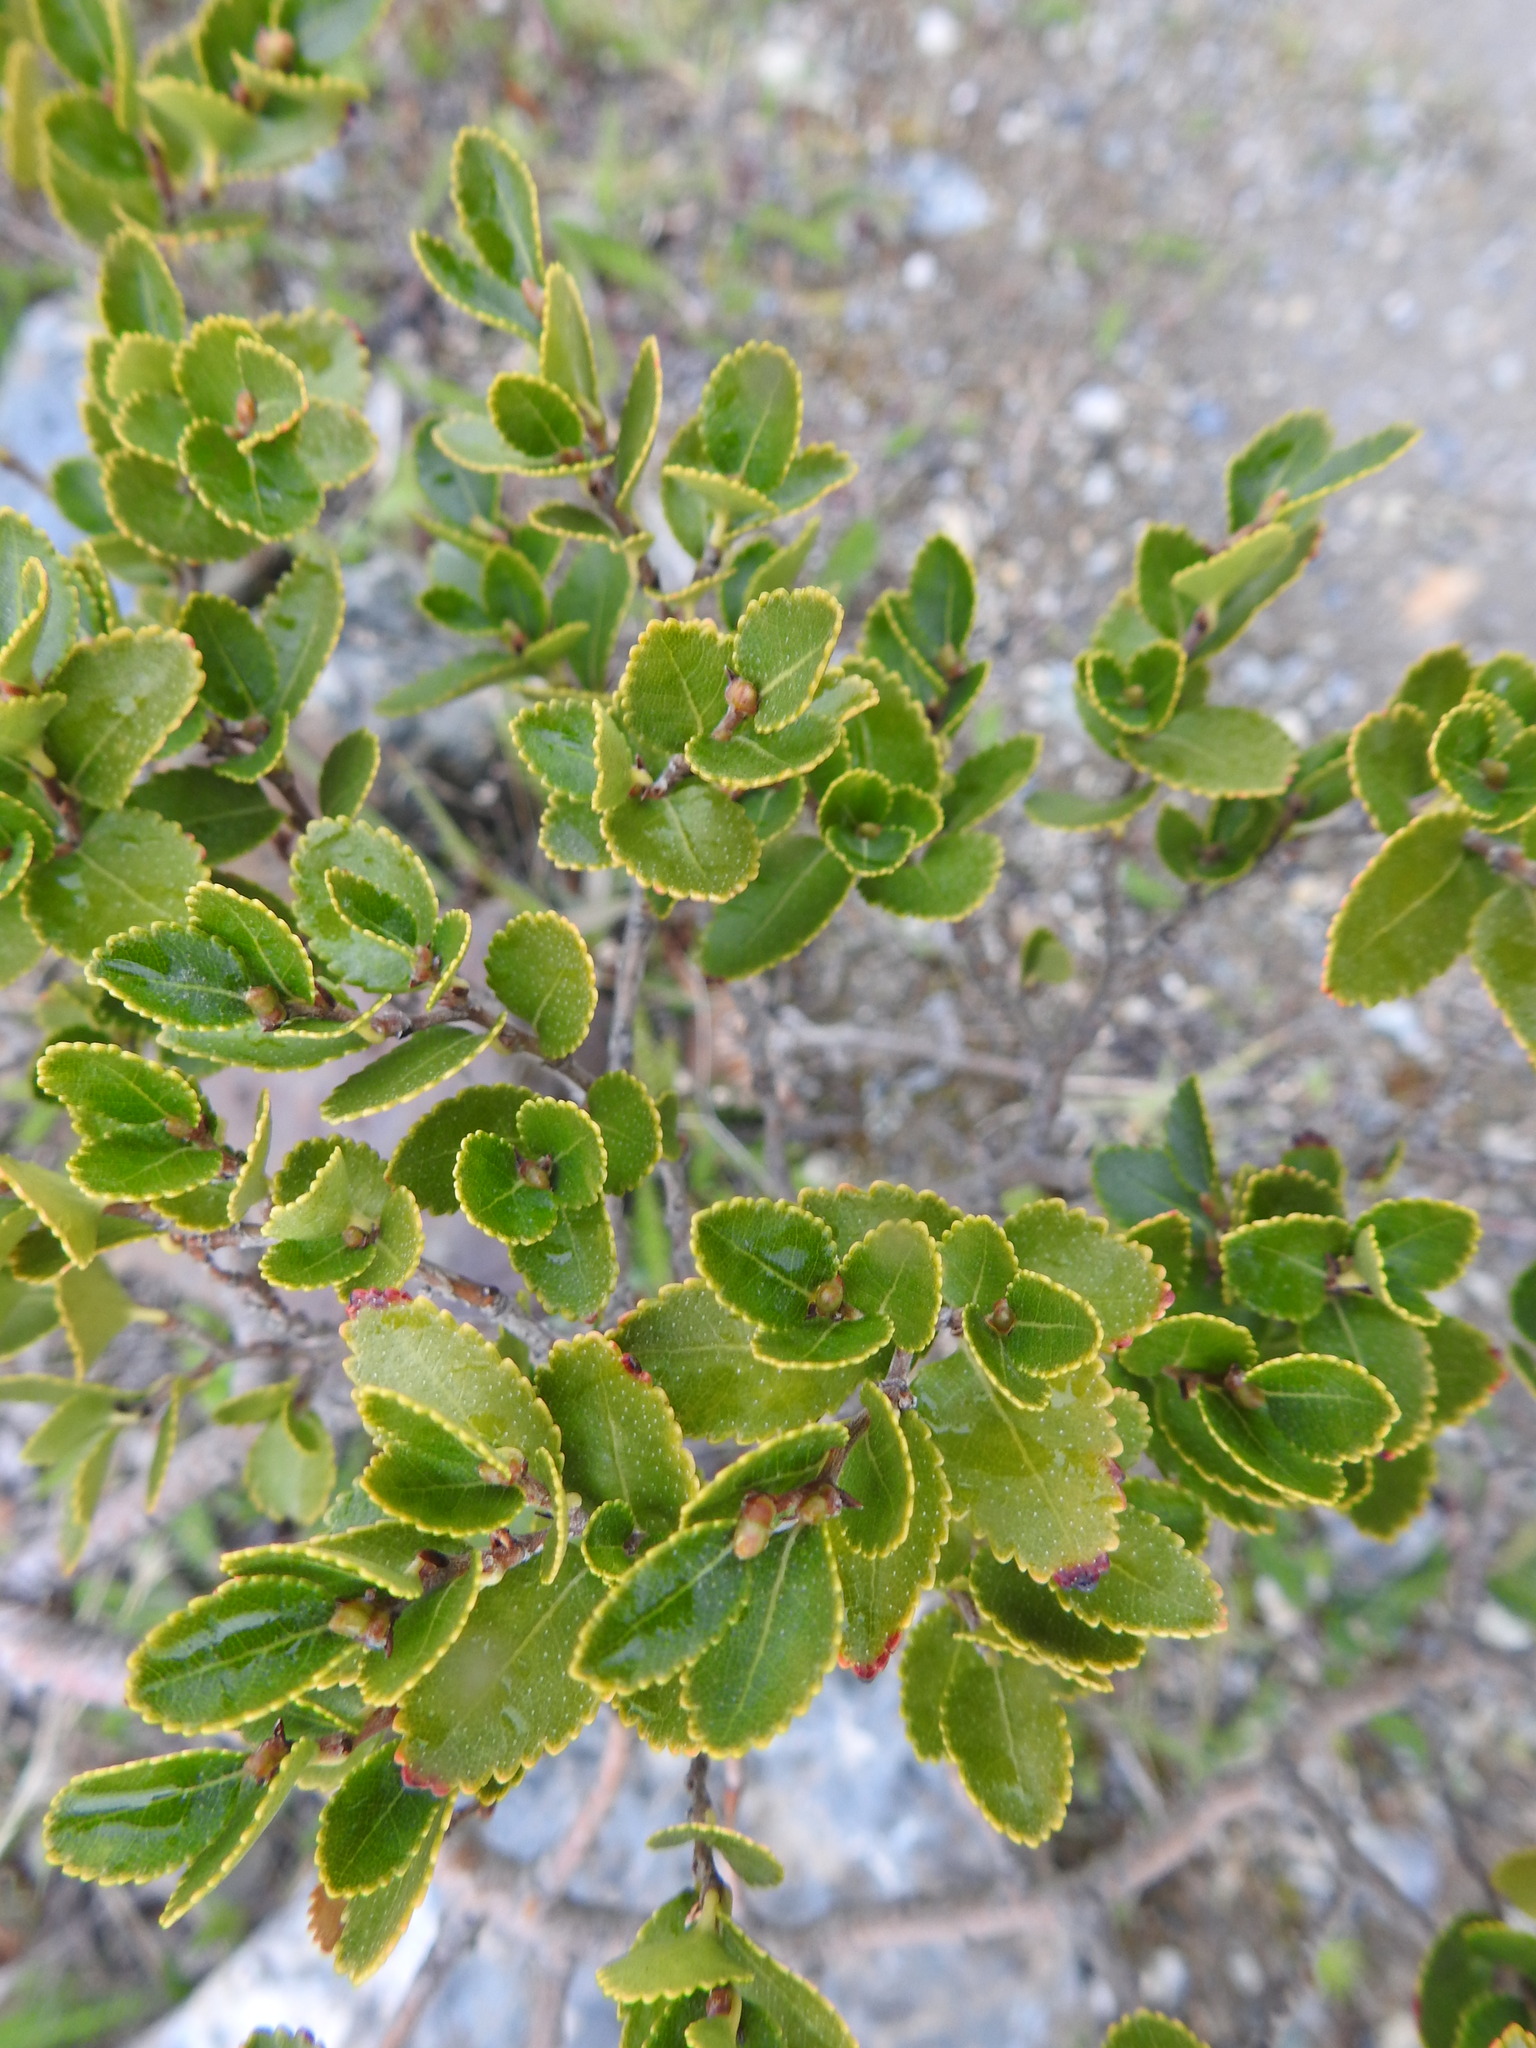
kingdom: Plantae
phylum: Tracheophyta
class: Magnoliopsida
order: Fagales
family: Nothofagaceae
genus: Nothofagus
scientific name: Nothofagus betuloides
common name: Magellan's beech
